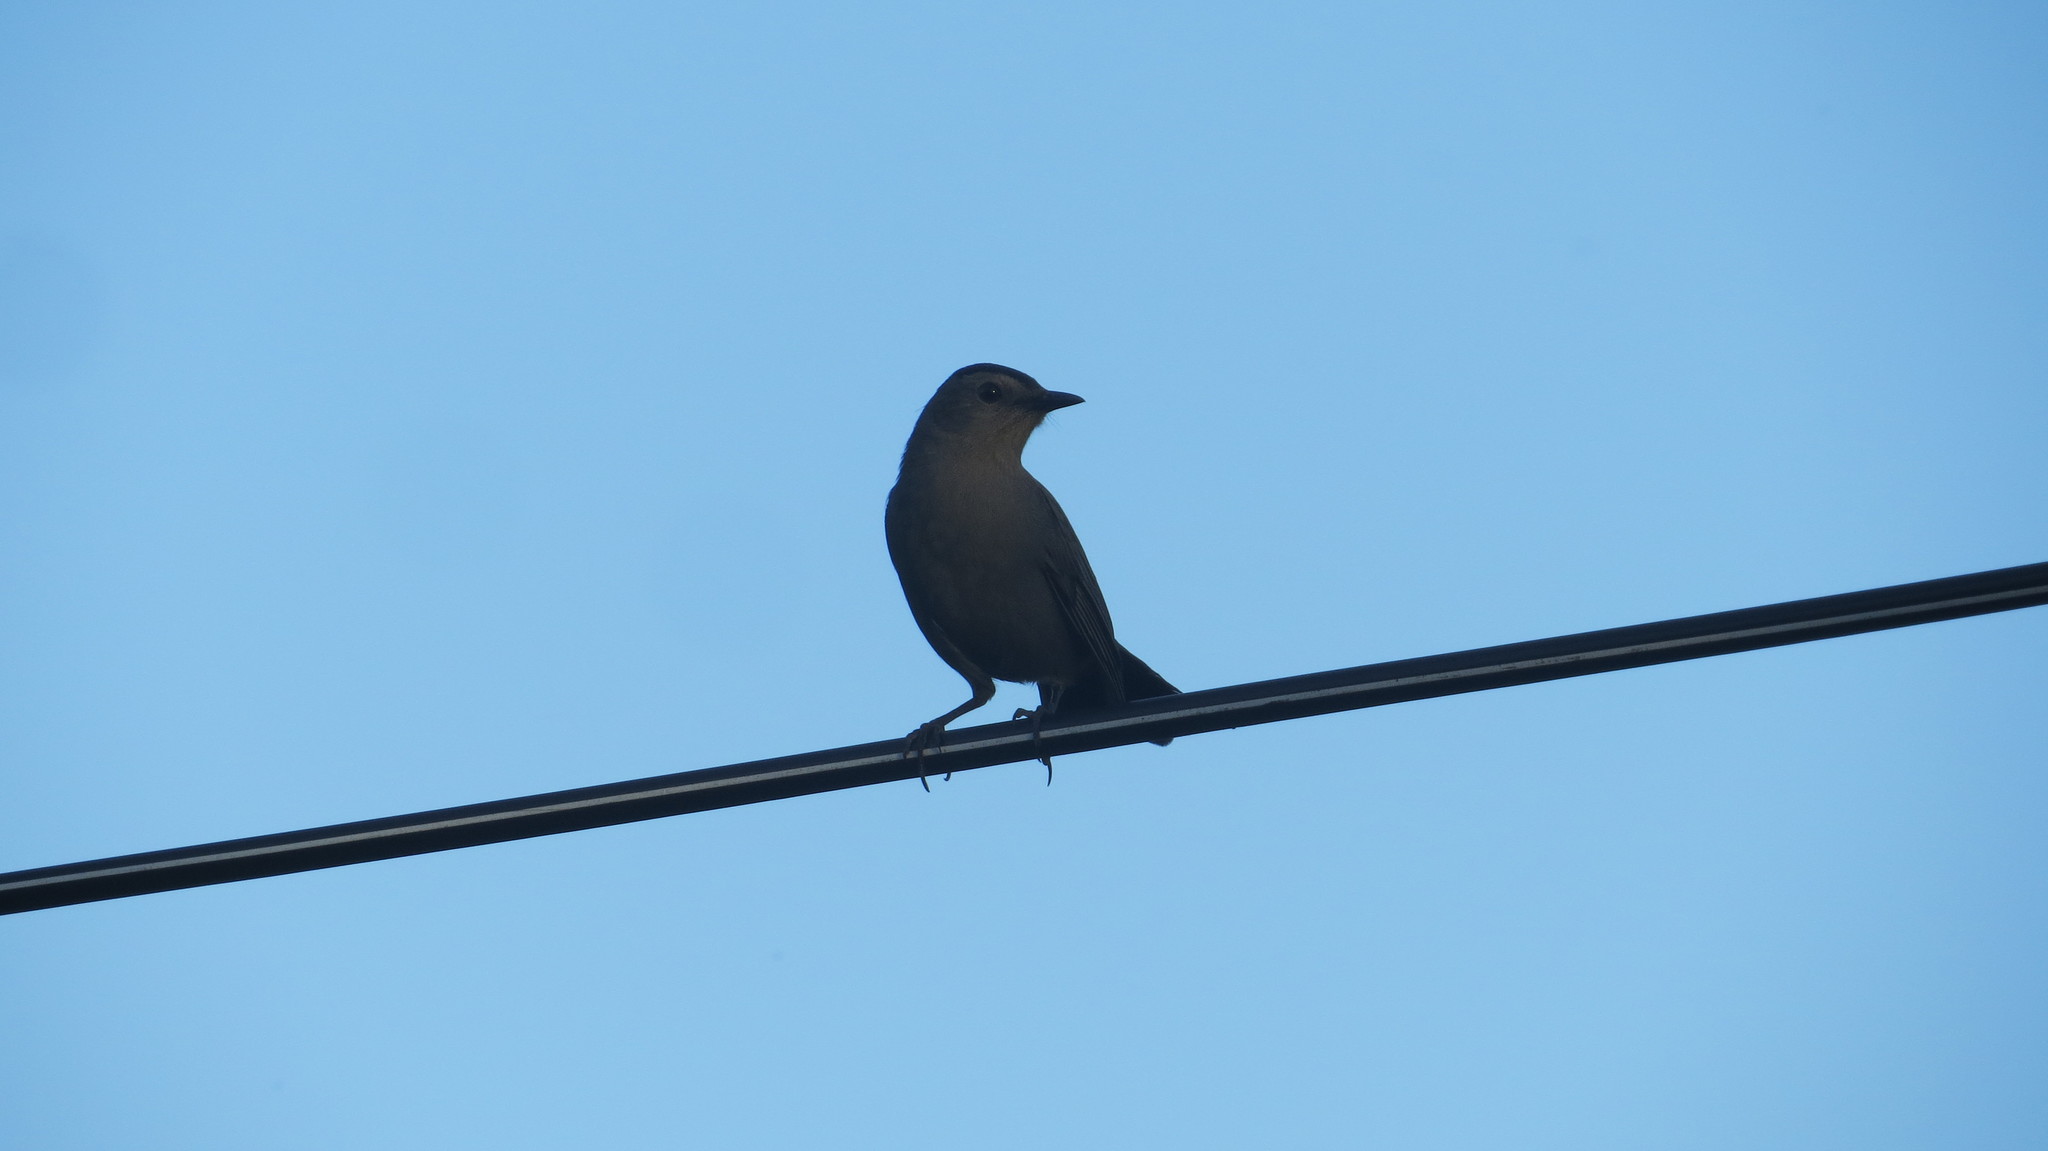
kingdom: Animalia
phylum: Chordata
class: Aves
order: Passeriformes
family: Mimidae
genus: Dumetella
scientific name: Dumetella carolinensis
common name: Gray catbird
